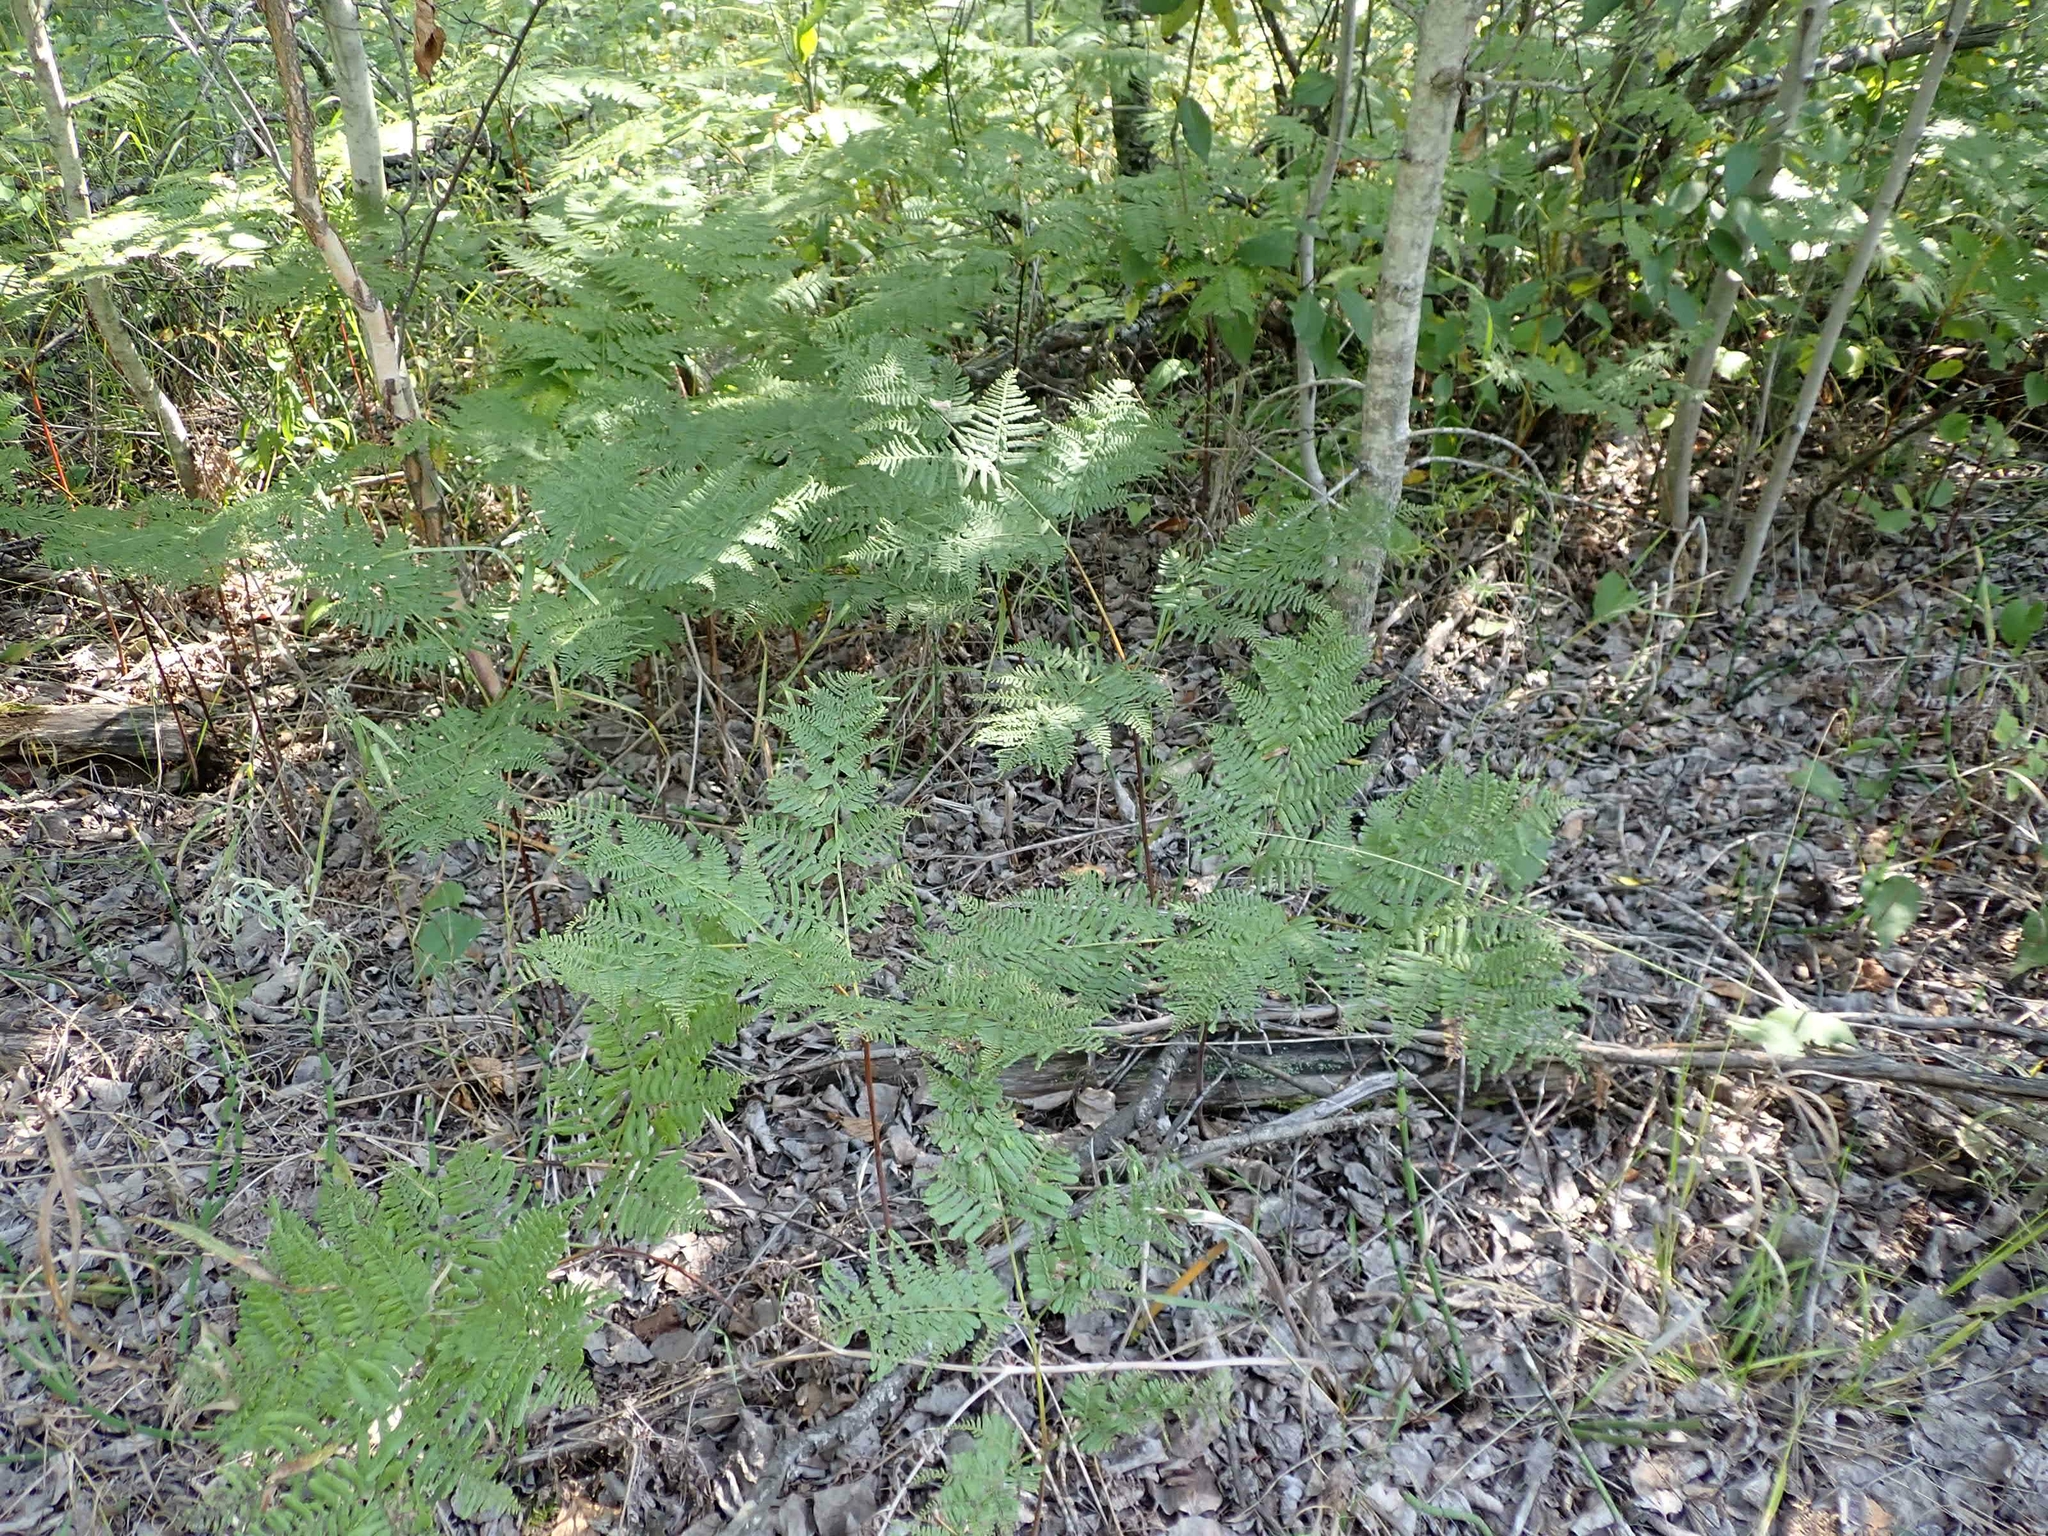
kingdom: Plantae
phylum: Tracheophyta
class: Polypodiopsida
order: Polypodiales
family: Dennstaedtiaceae
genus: Pteridium
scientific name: Pteridium aquilinum
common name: Bracken
